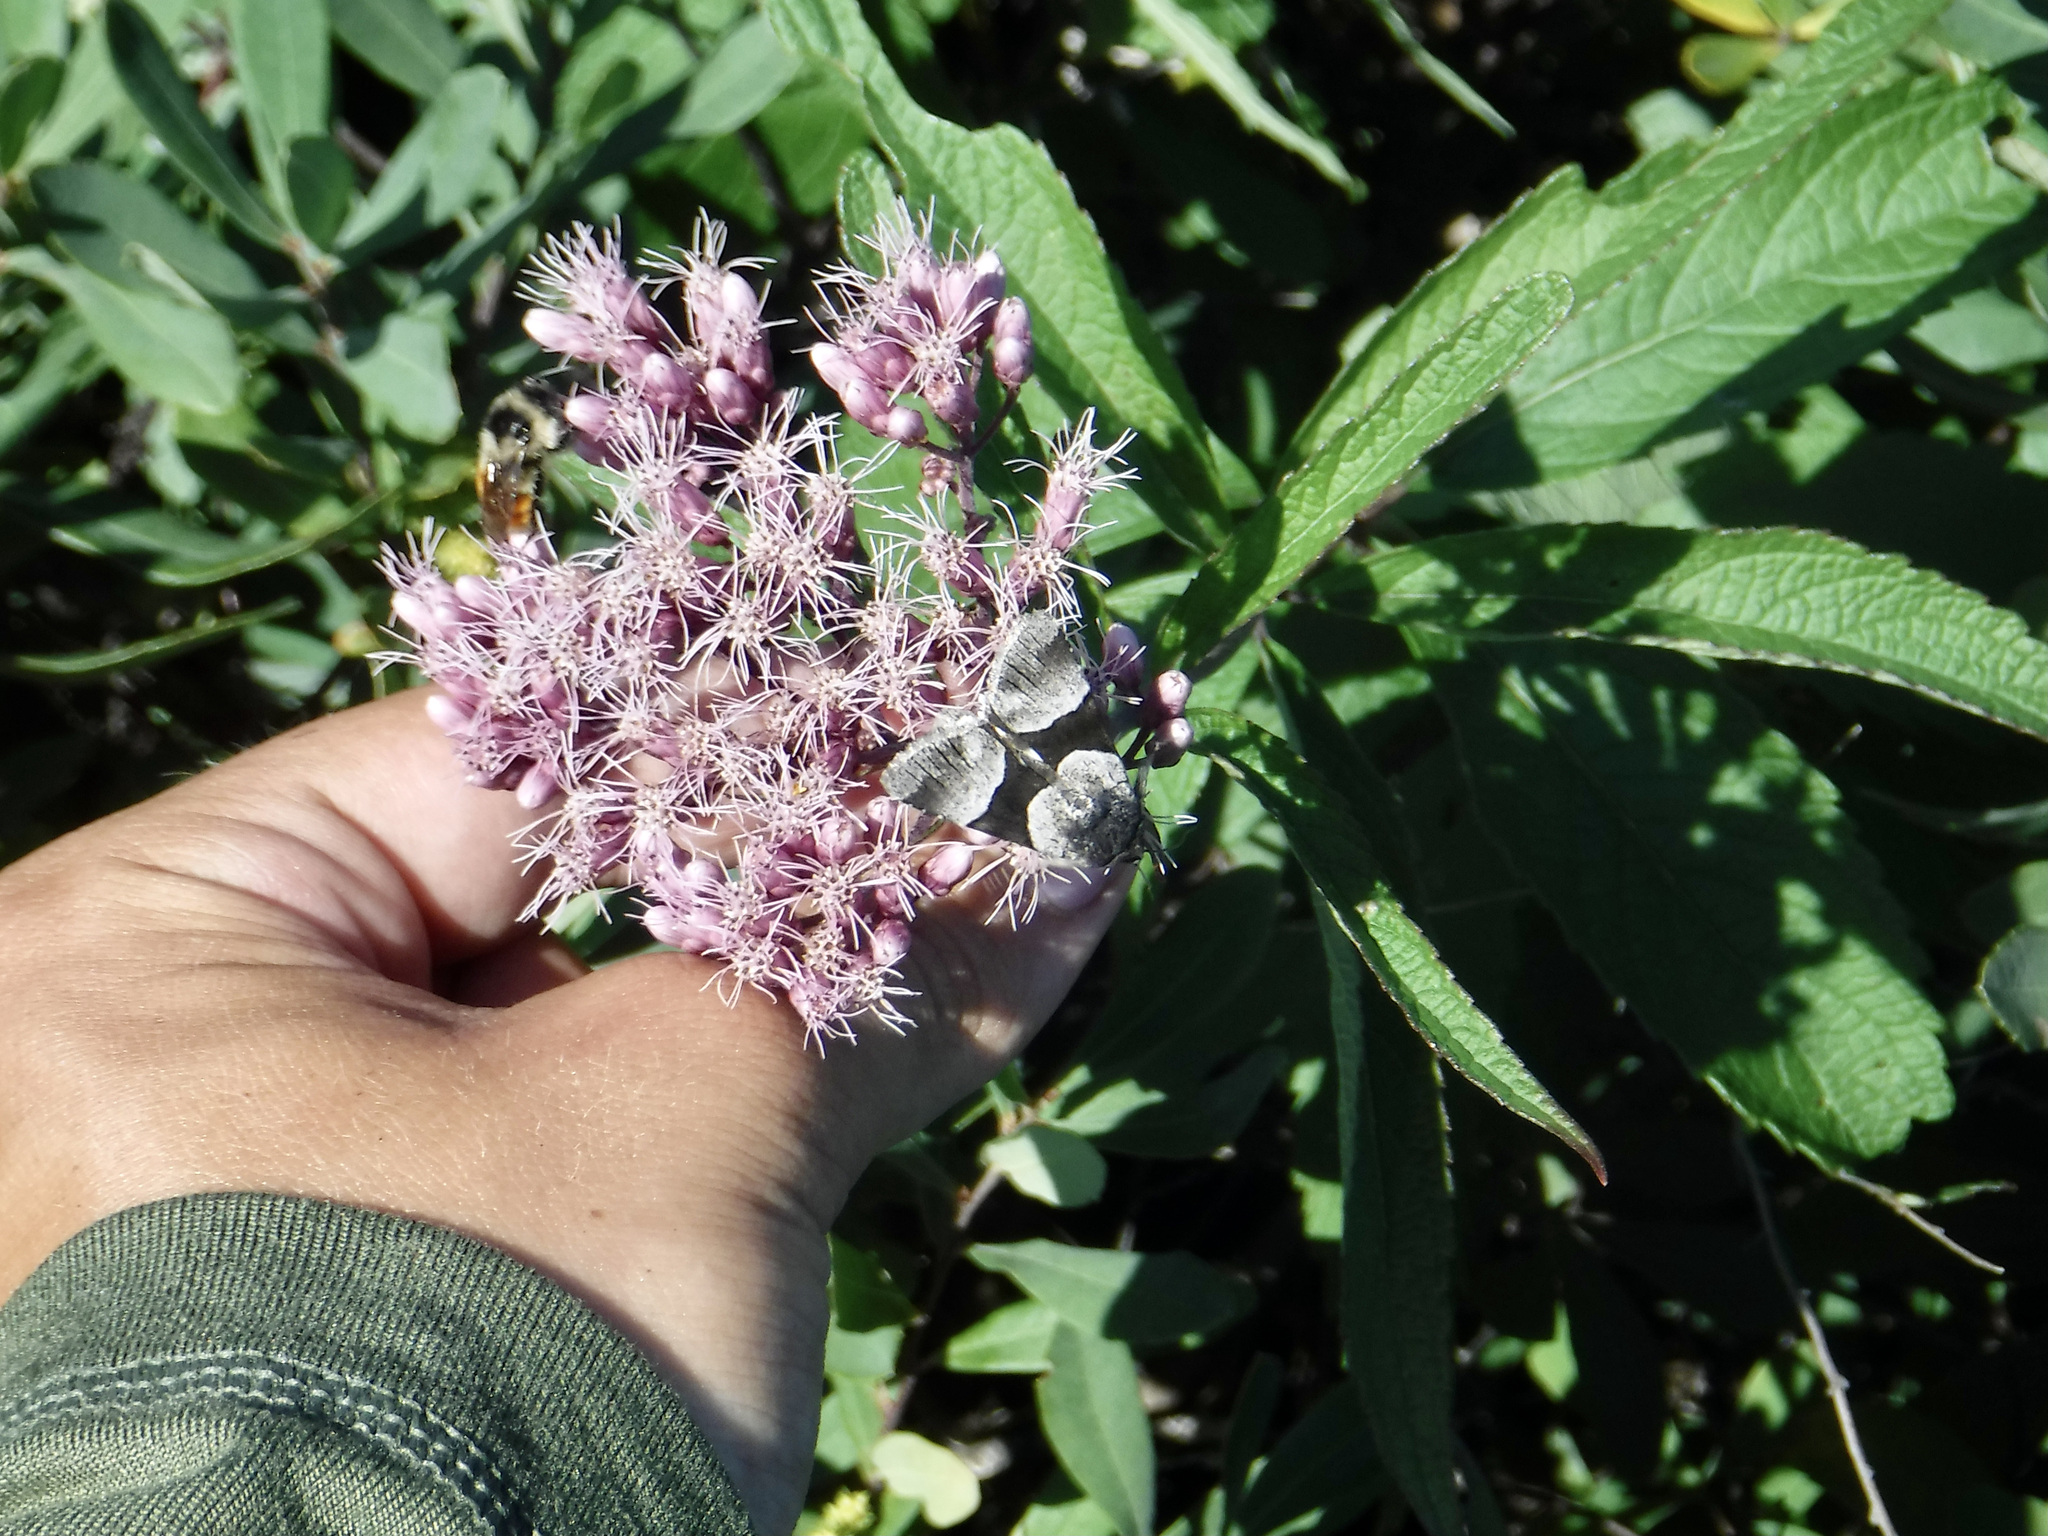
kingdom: Animalia
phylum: Arthropoda
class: Insecta
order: Lepidoptera
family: Noctuidae
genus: Sympistis
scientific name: Sympistis piffardi
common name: Three-striped oncocnemis
